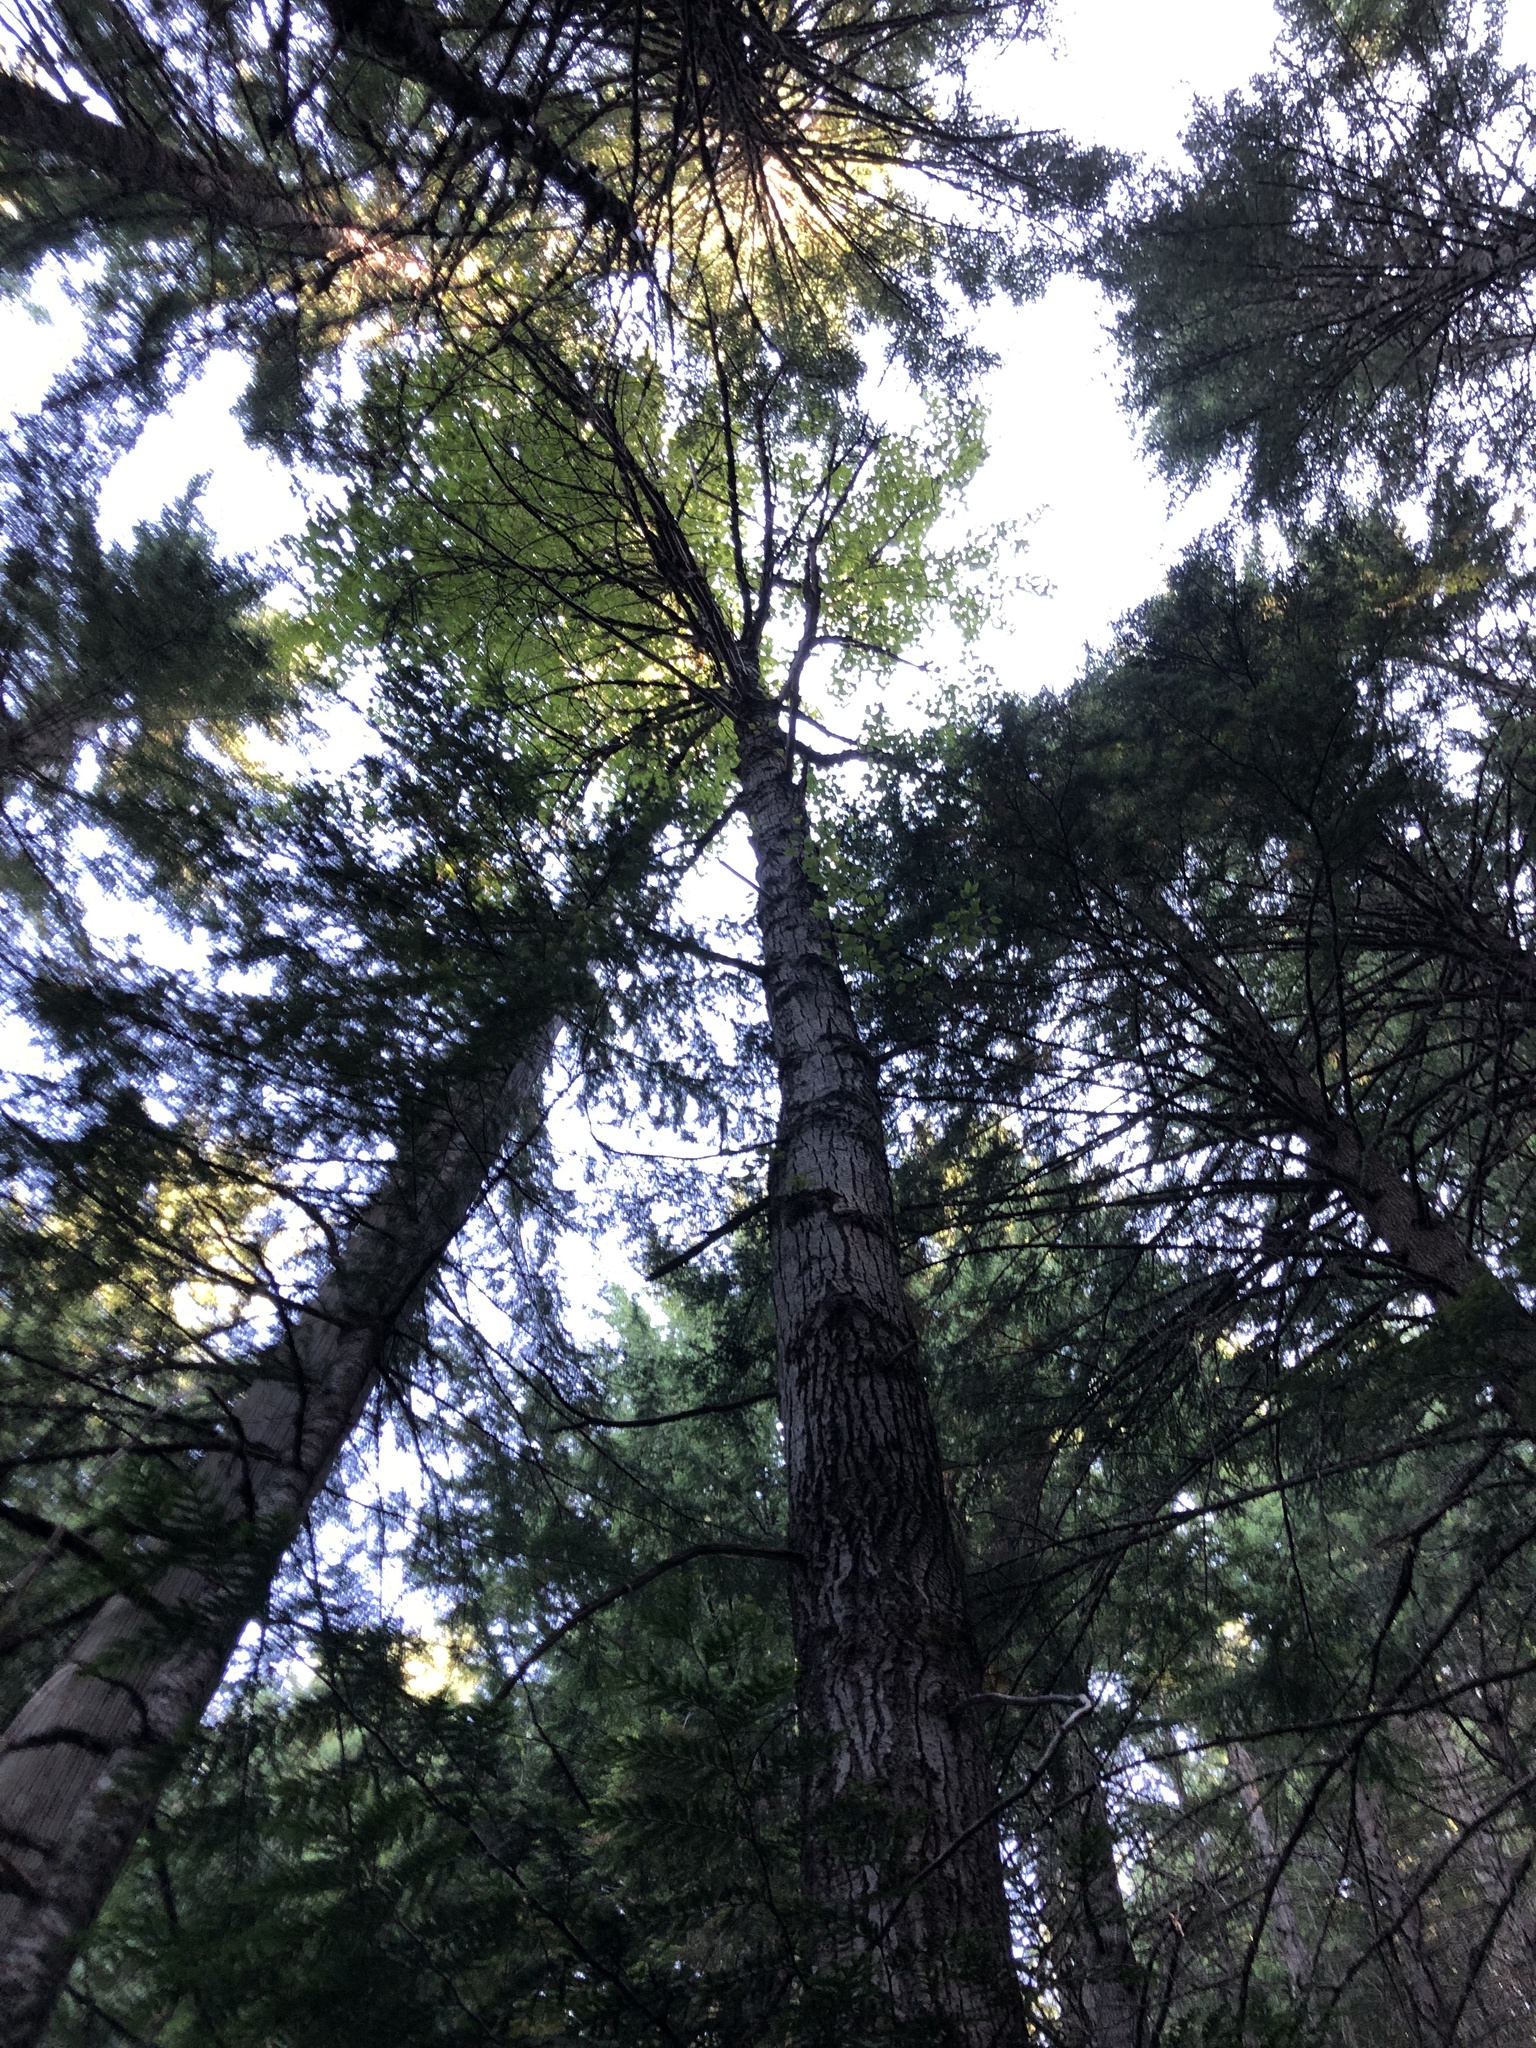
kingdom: Plantae
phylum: Tracheophyta
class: Magnoliopsida
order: Malpighiales
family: Salicaceae
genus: Populus
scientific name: Populus trichocarpa
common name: Black cottonwood
